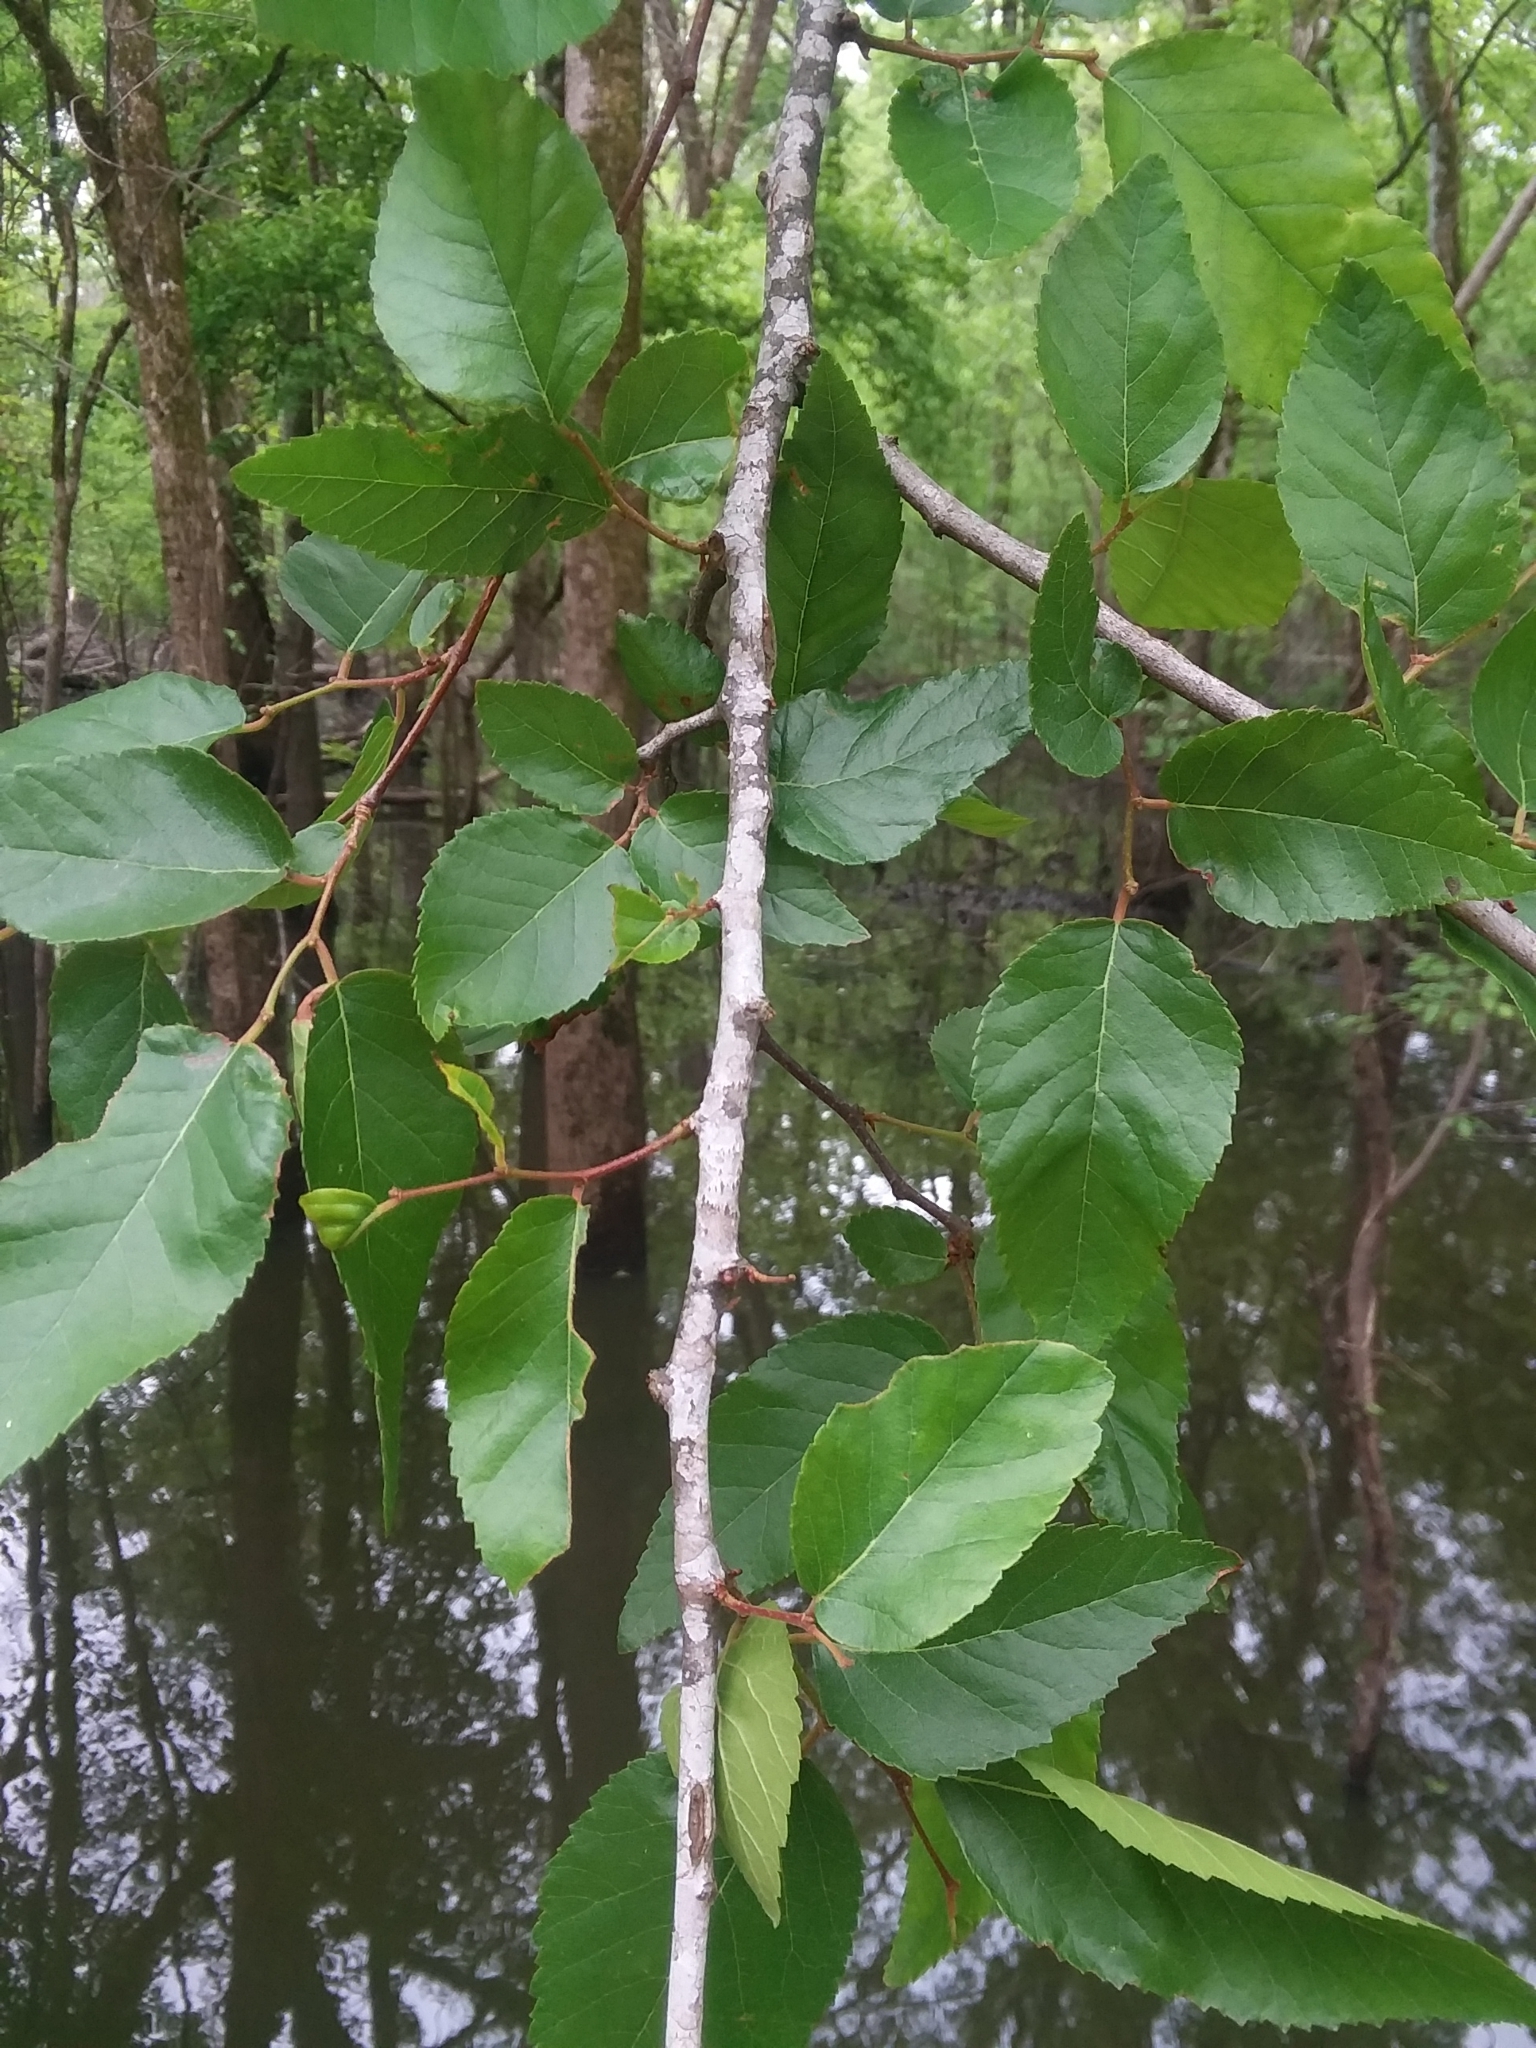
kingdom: Plantae
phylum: Tracheophyta
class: Magnoliopsida
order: Rosales
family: Ulmaceae
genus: Planera
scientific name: Planera aquatica
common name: Water-elm
